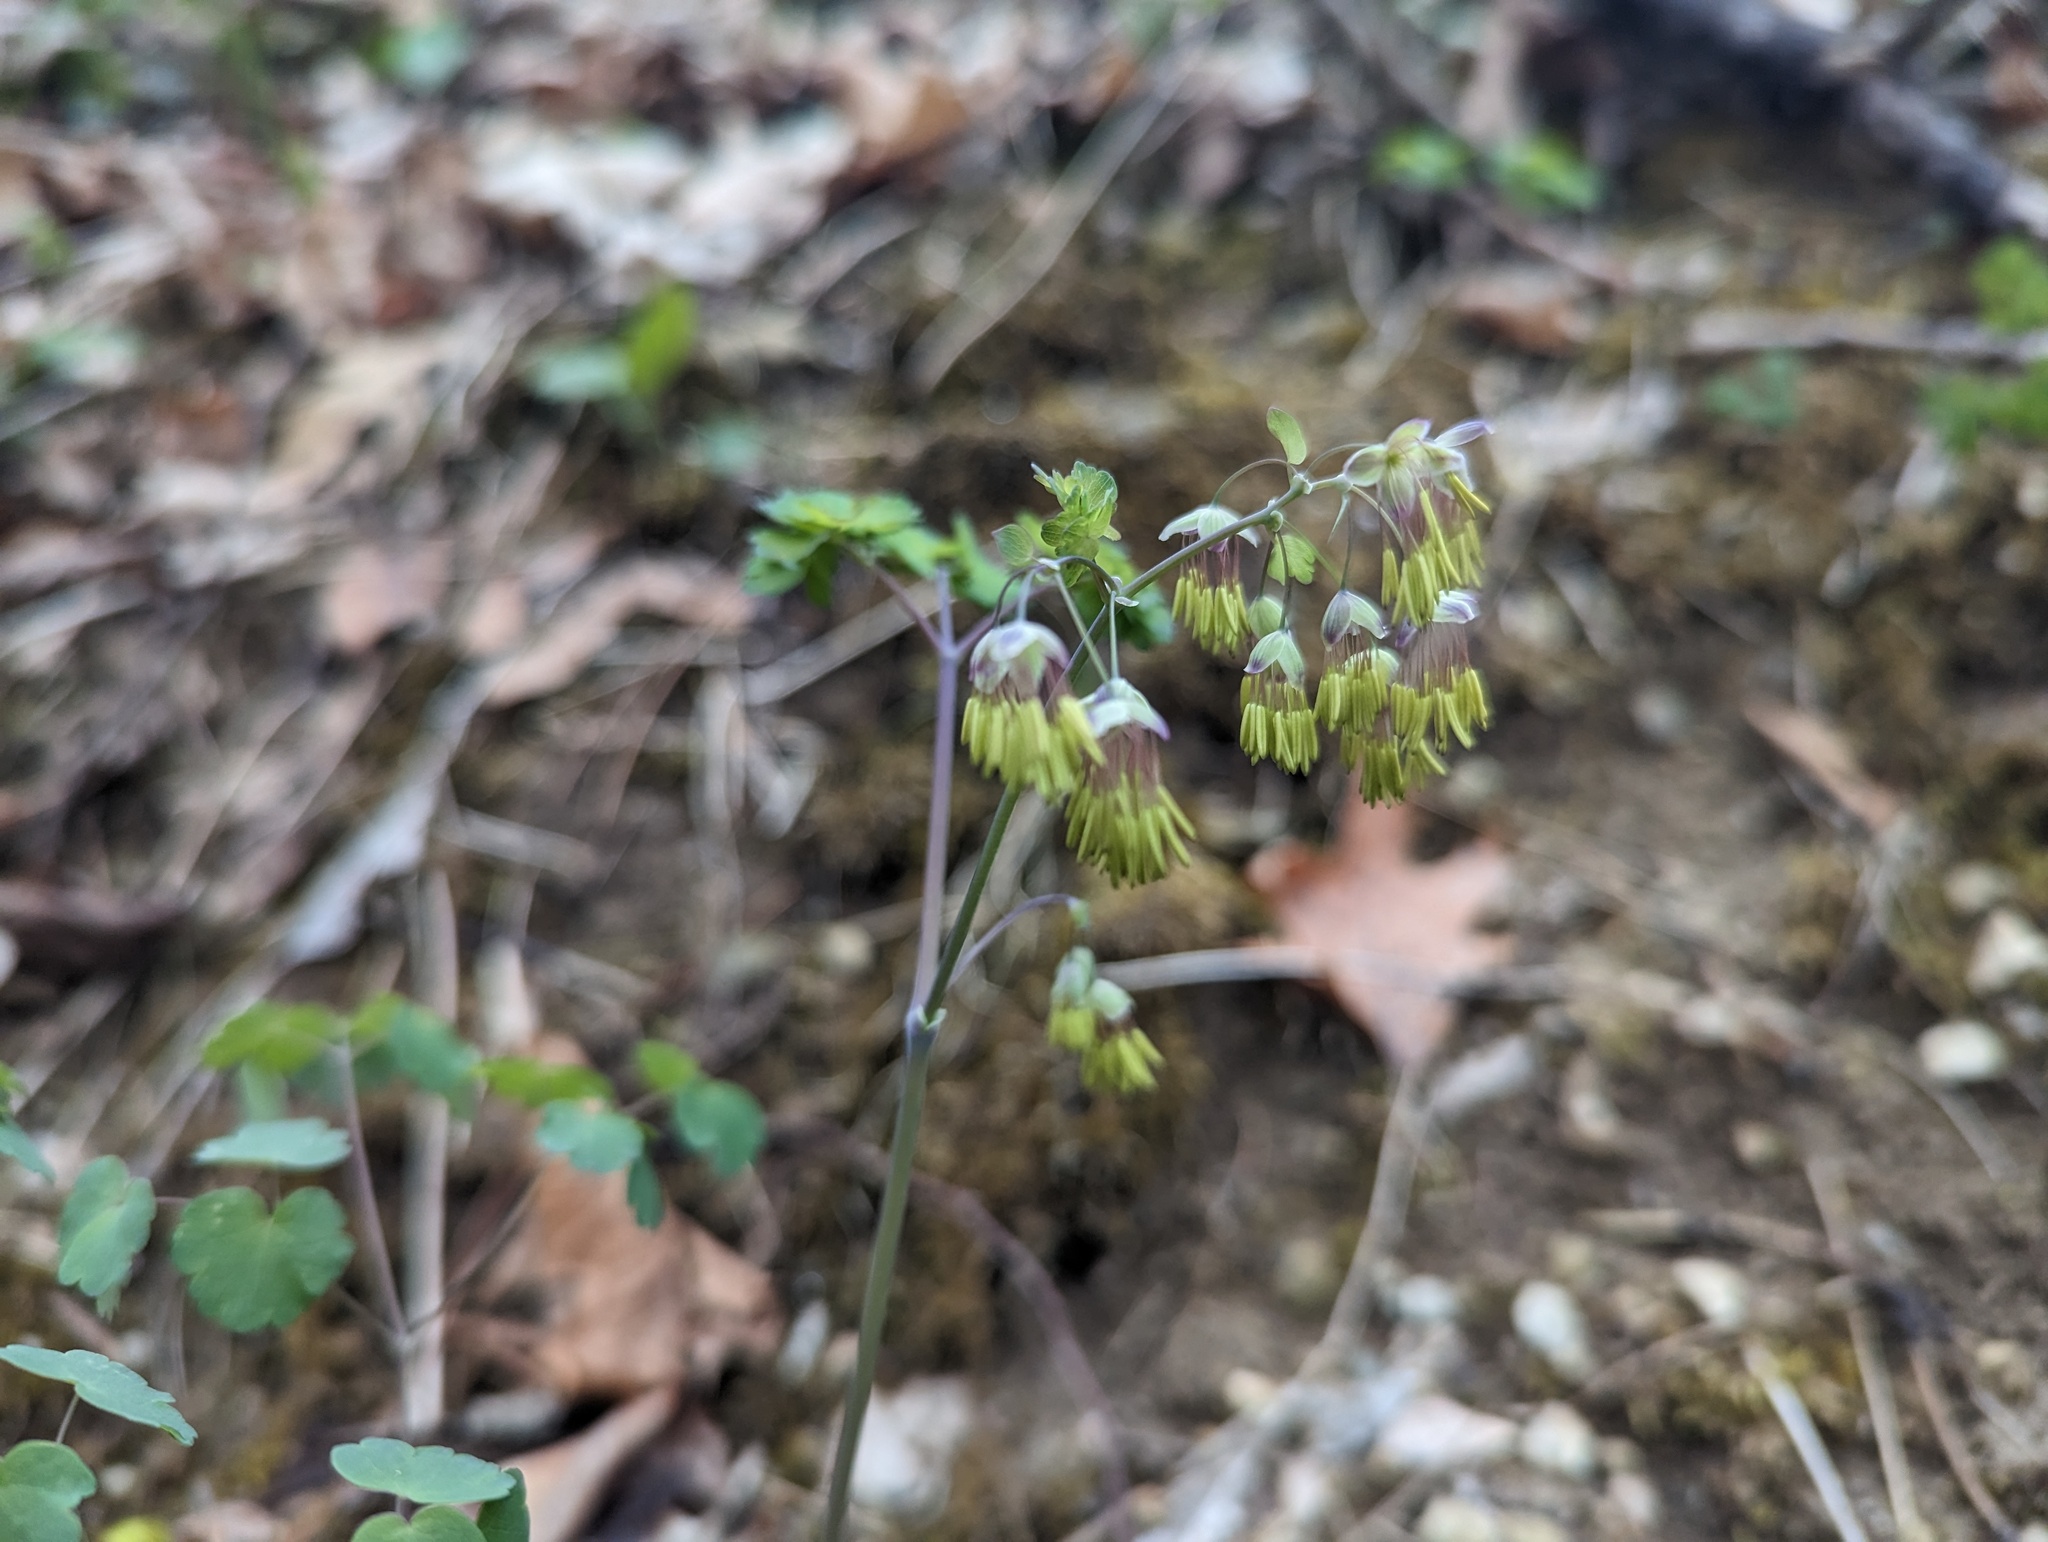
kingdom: Plantae
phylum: Tracheophyta
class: Magnoliopsida
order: Ranunculales
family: Ranunculaceae
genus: Thalictrum
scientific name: Thalictrum dioicum
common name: Early meadow-rue
